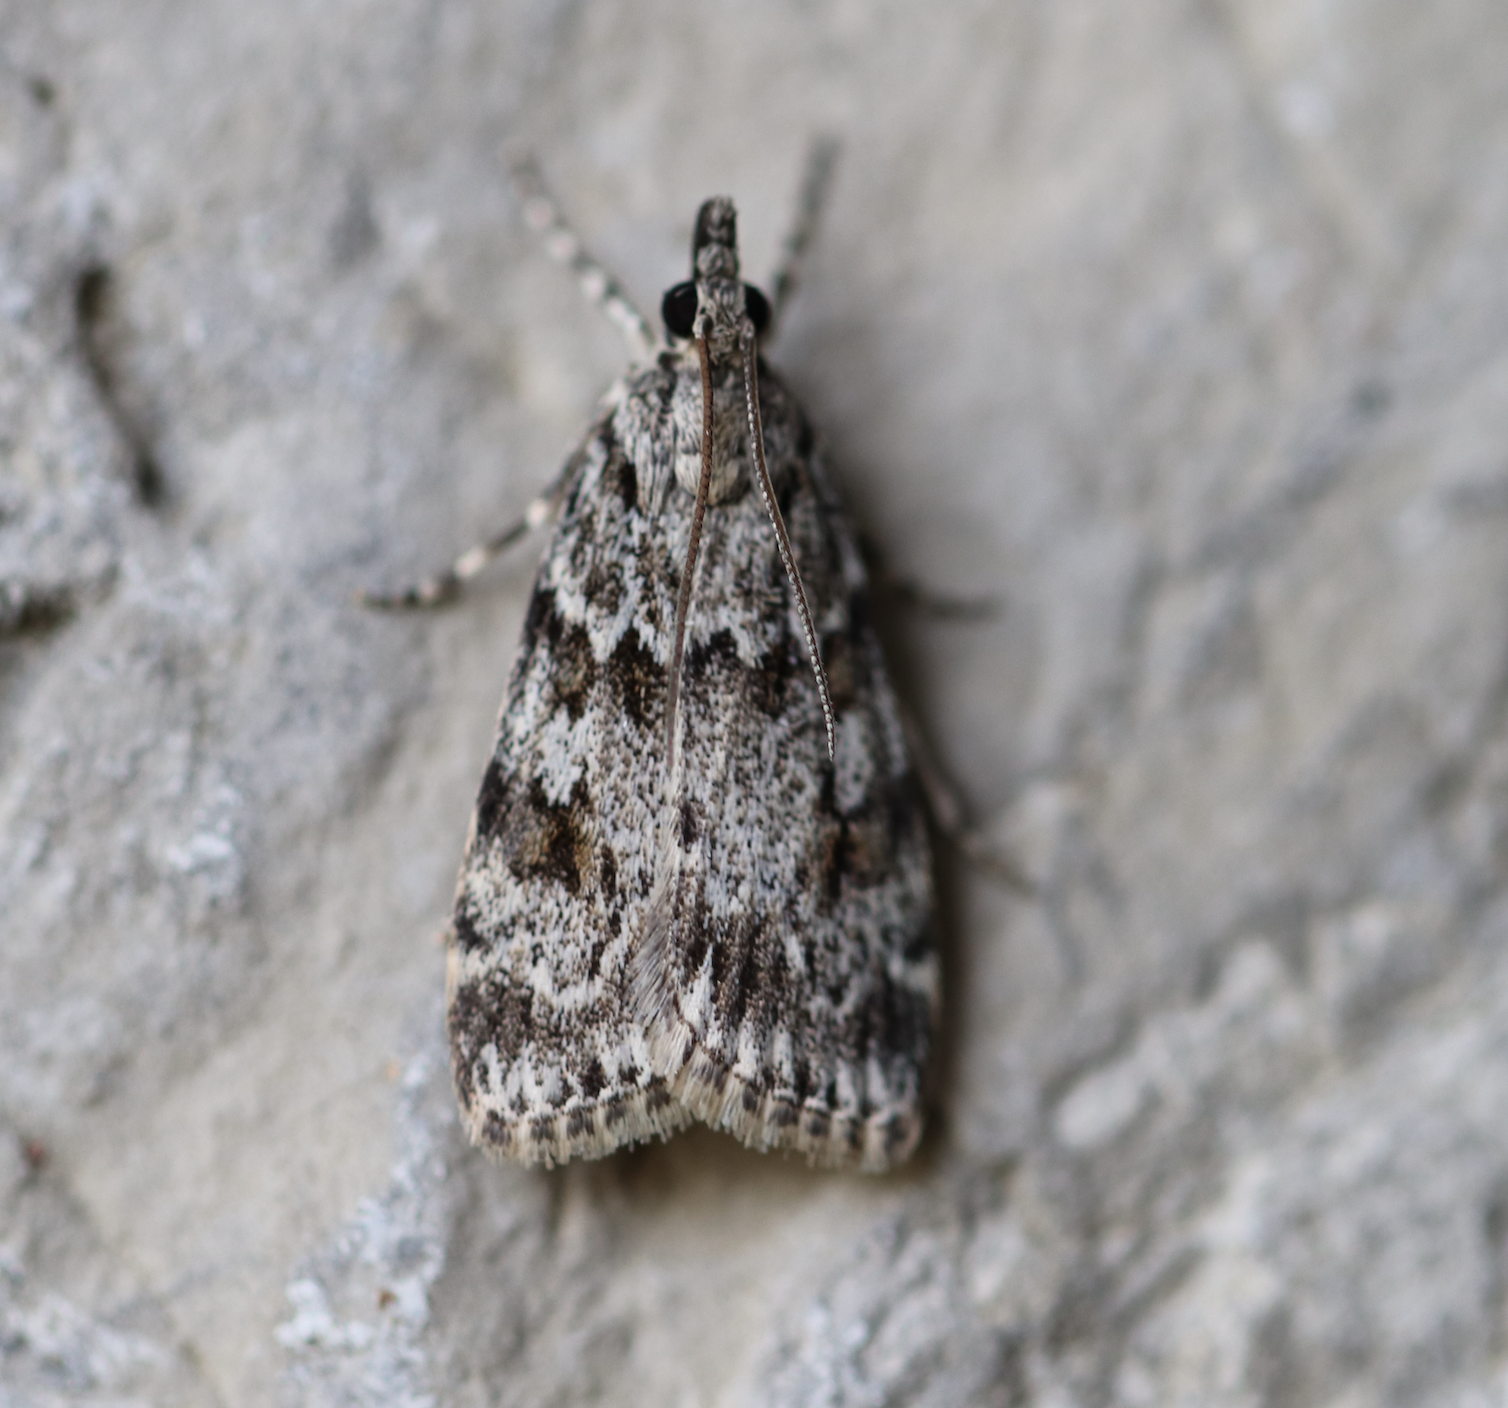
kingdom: Animalia
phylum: Arthropoda
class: Insecta
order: Lepidoptera
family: Crambidae
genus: Scoparia
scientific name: Scoparia pyralella
